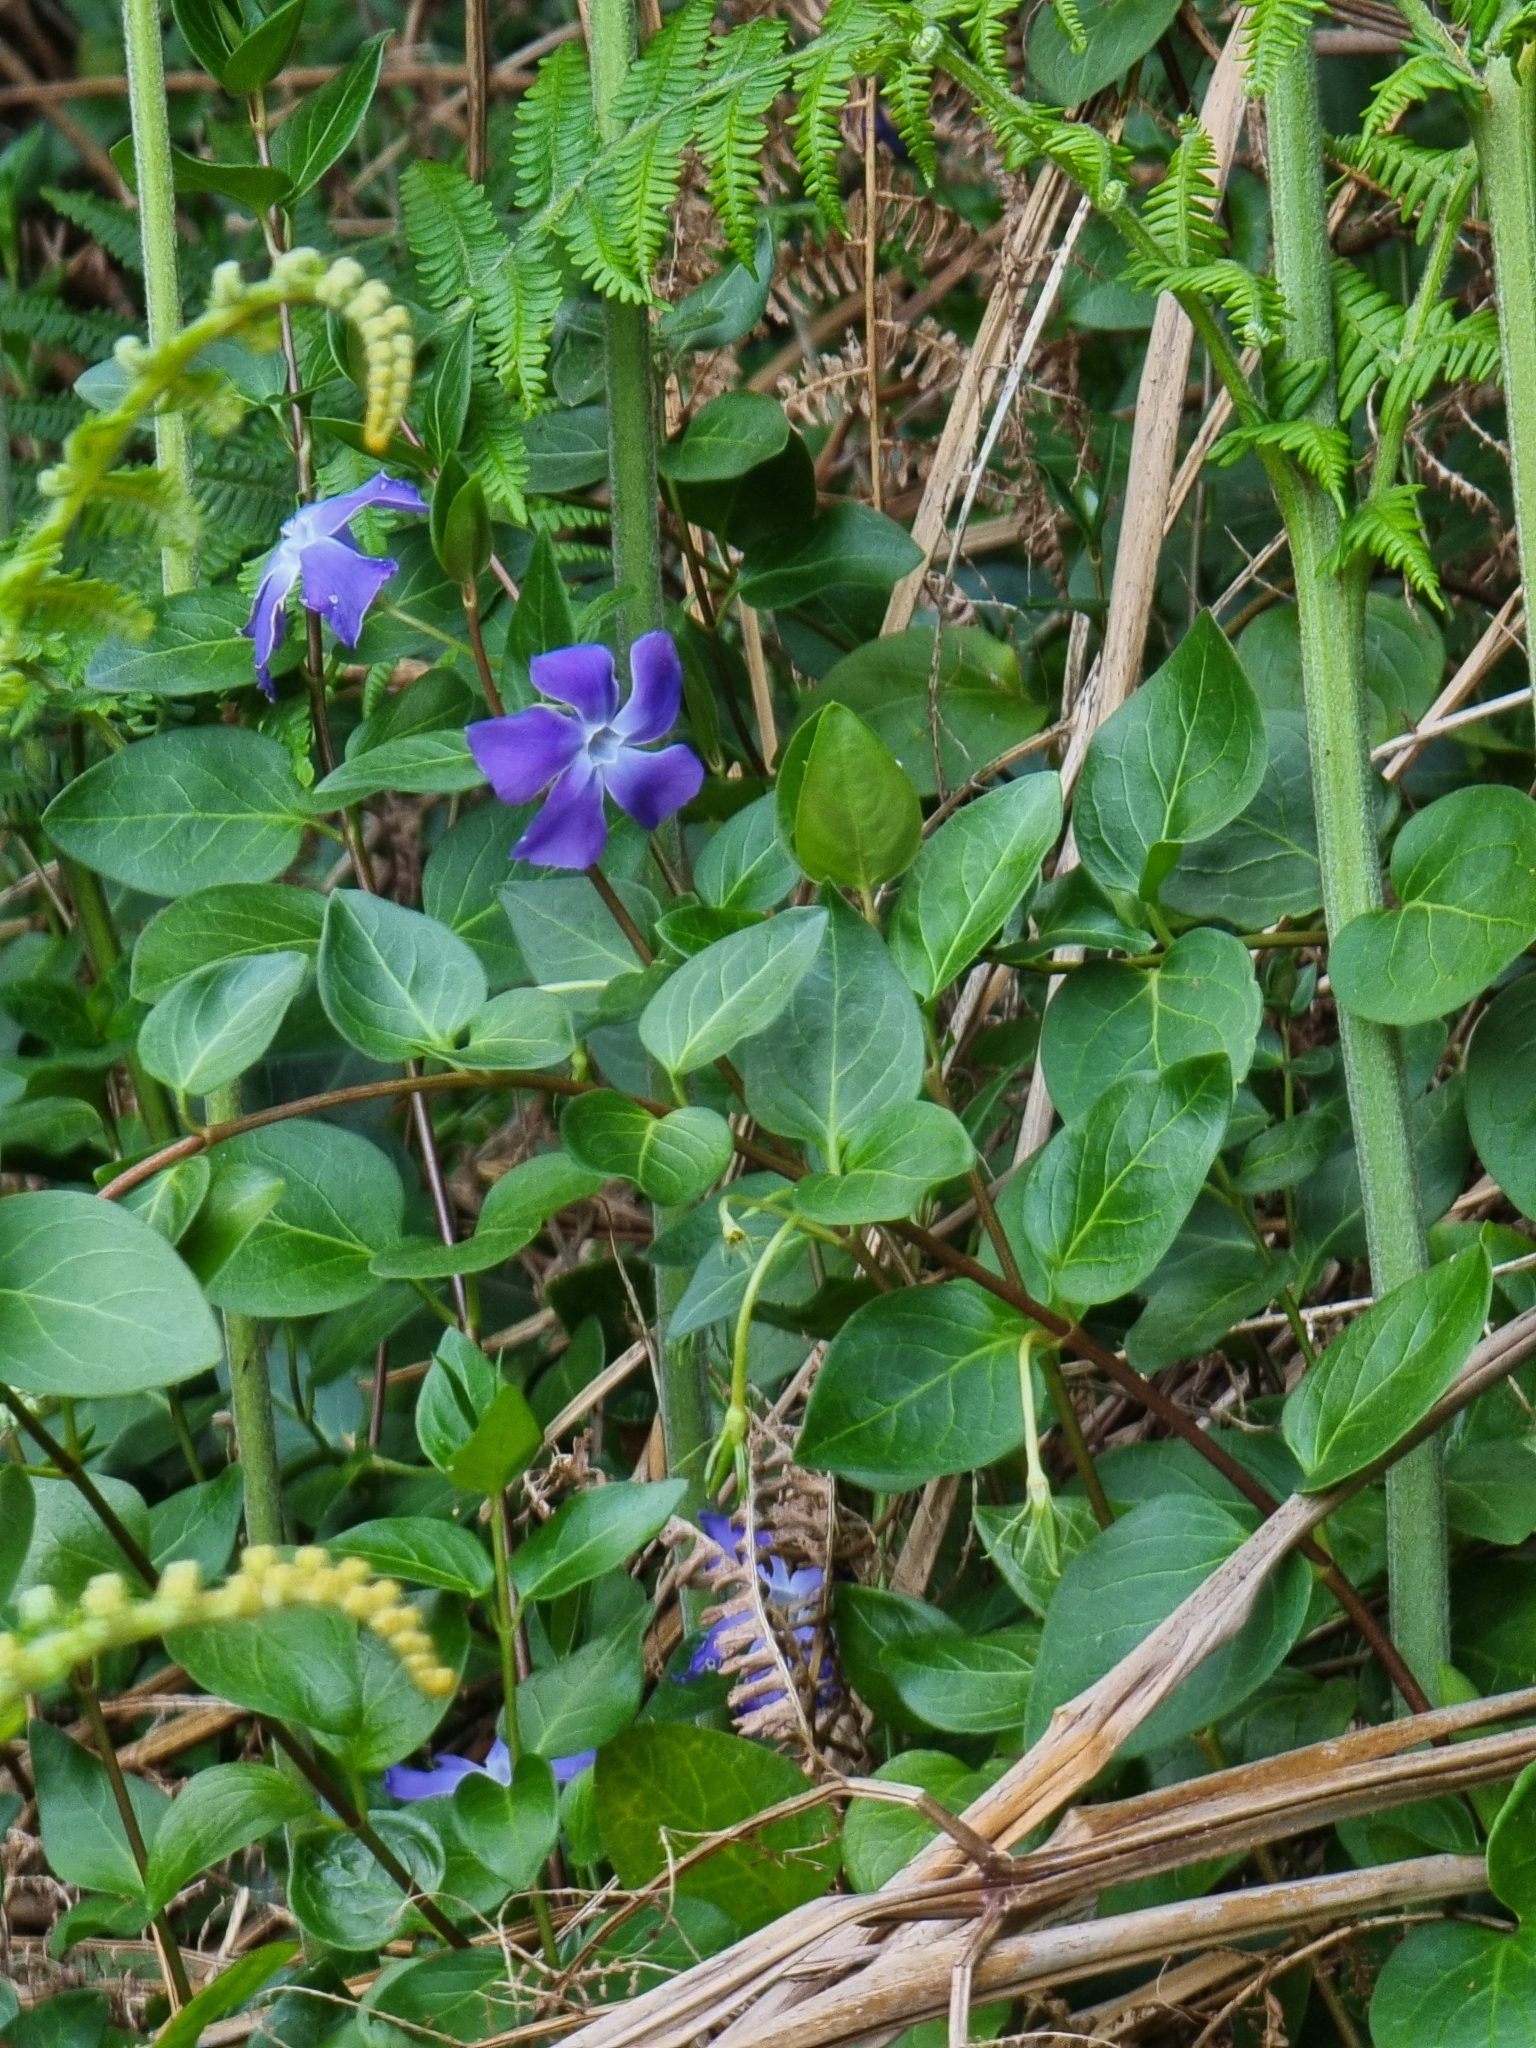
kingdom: Plantae
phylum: Tracheophyta
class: Magnoliopsida
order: Gentianales
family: Apocynaceae
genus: Vinca
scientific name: Vinca major
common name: Greater periwinkle
